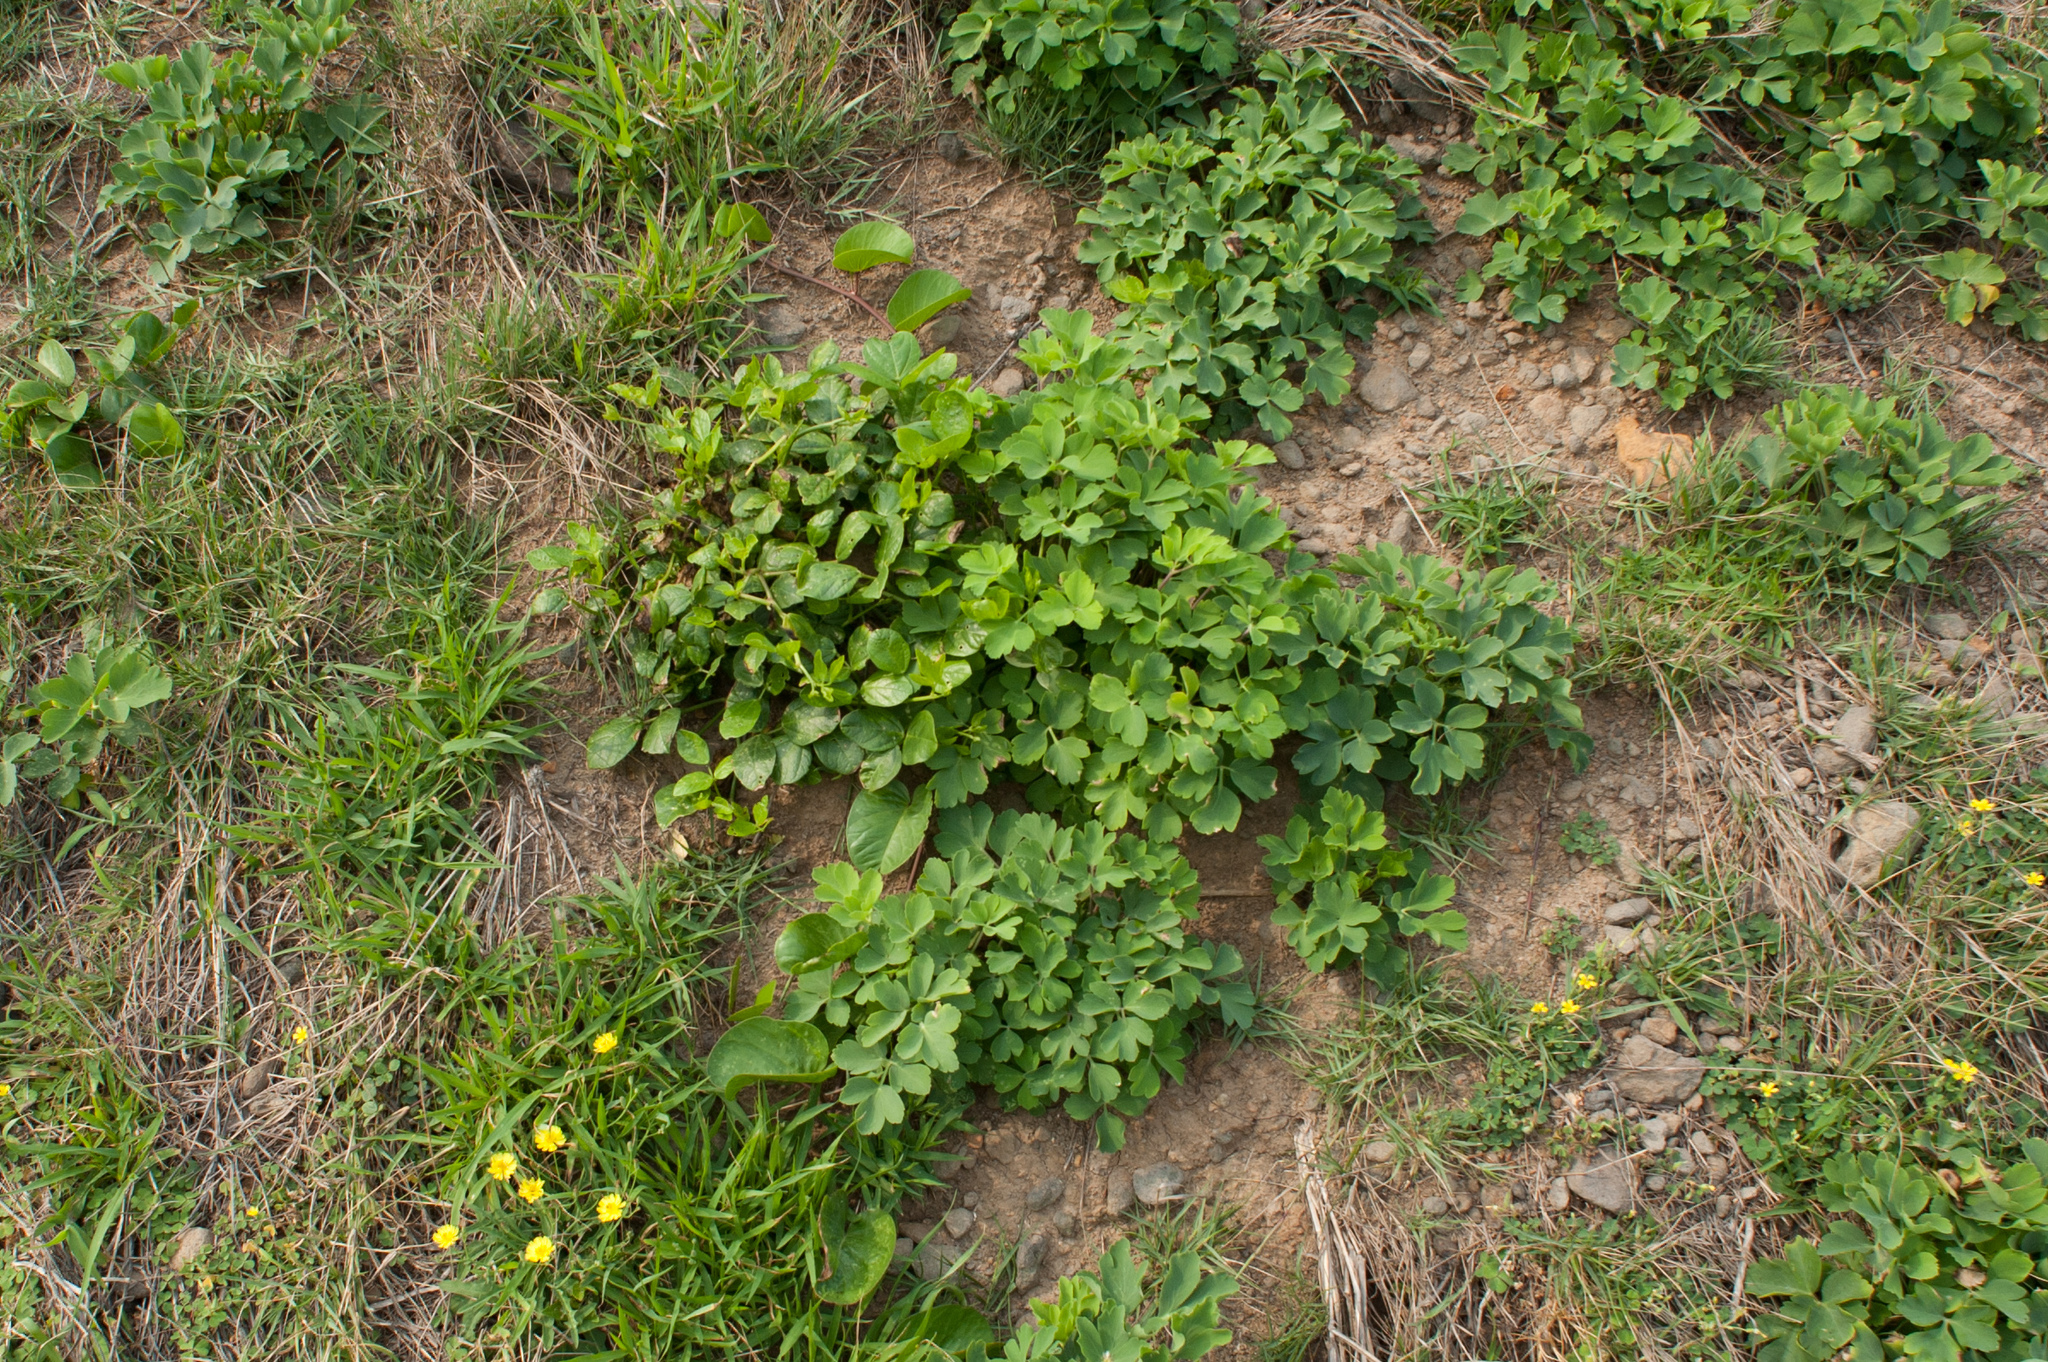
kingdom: Plantae
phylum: Tracheophyta
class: Magnoliopsida
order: Apiales
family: Apiaceae
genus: Peucedanum
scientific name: Peucedanum japonicum
